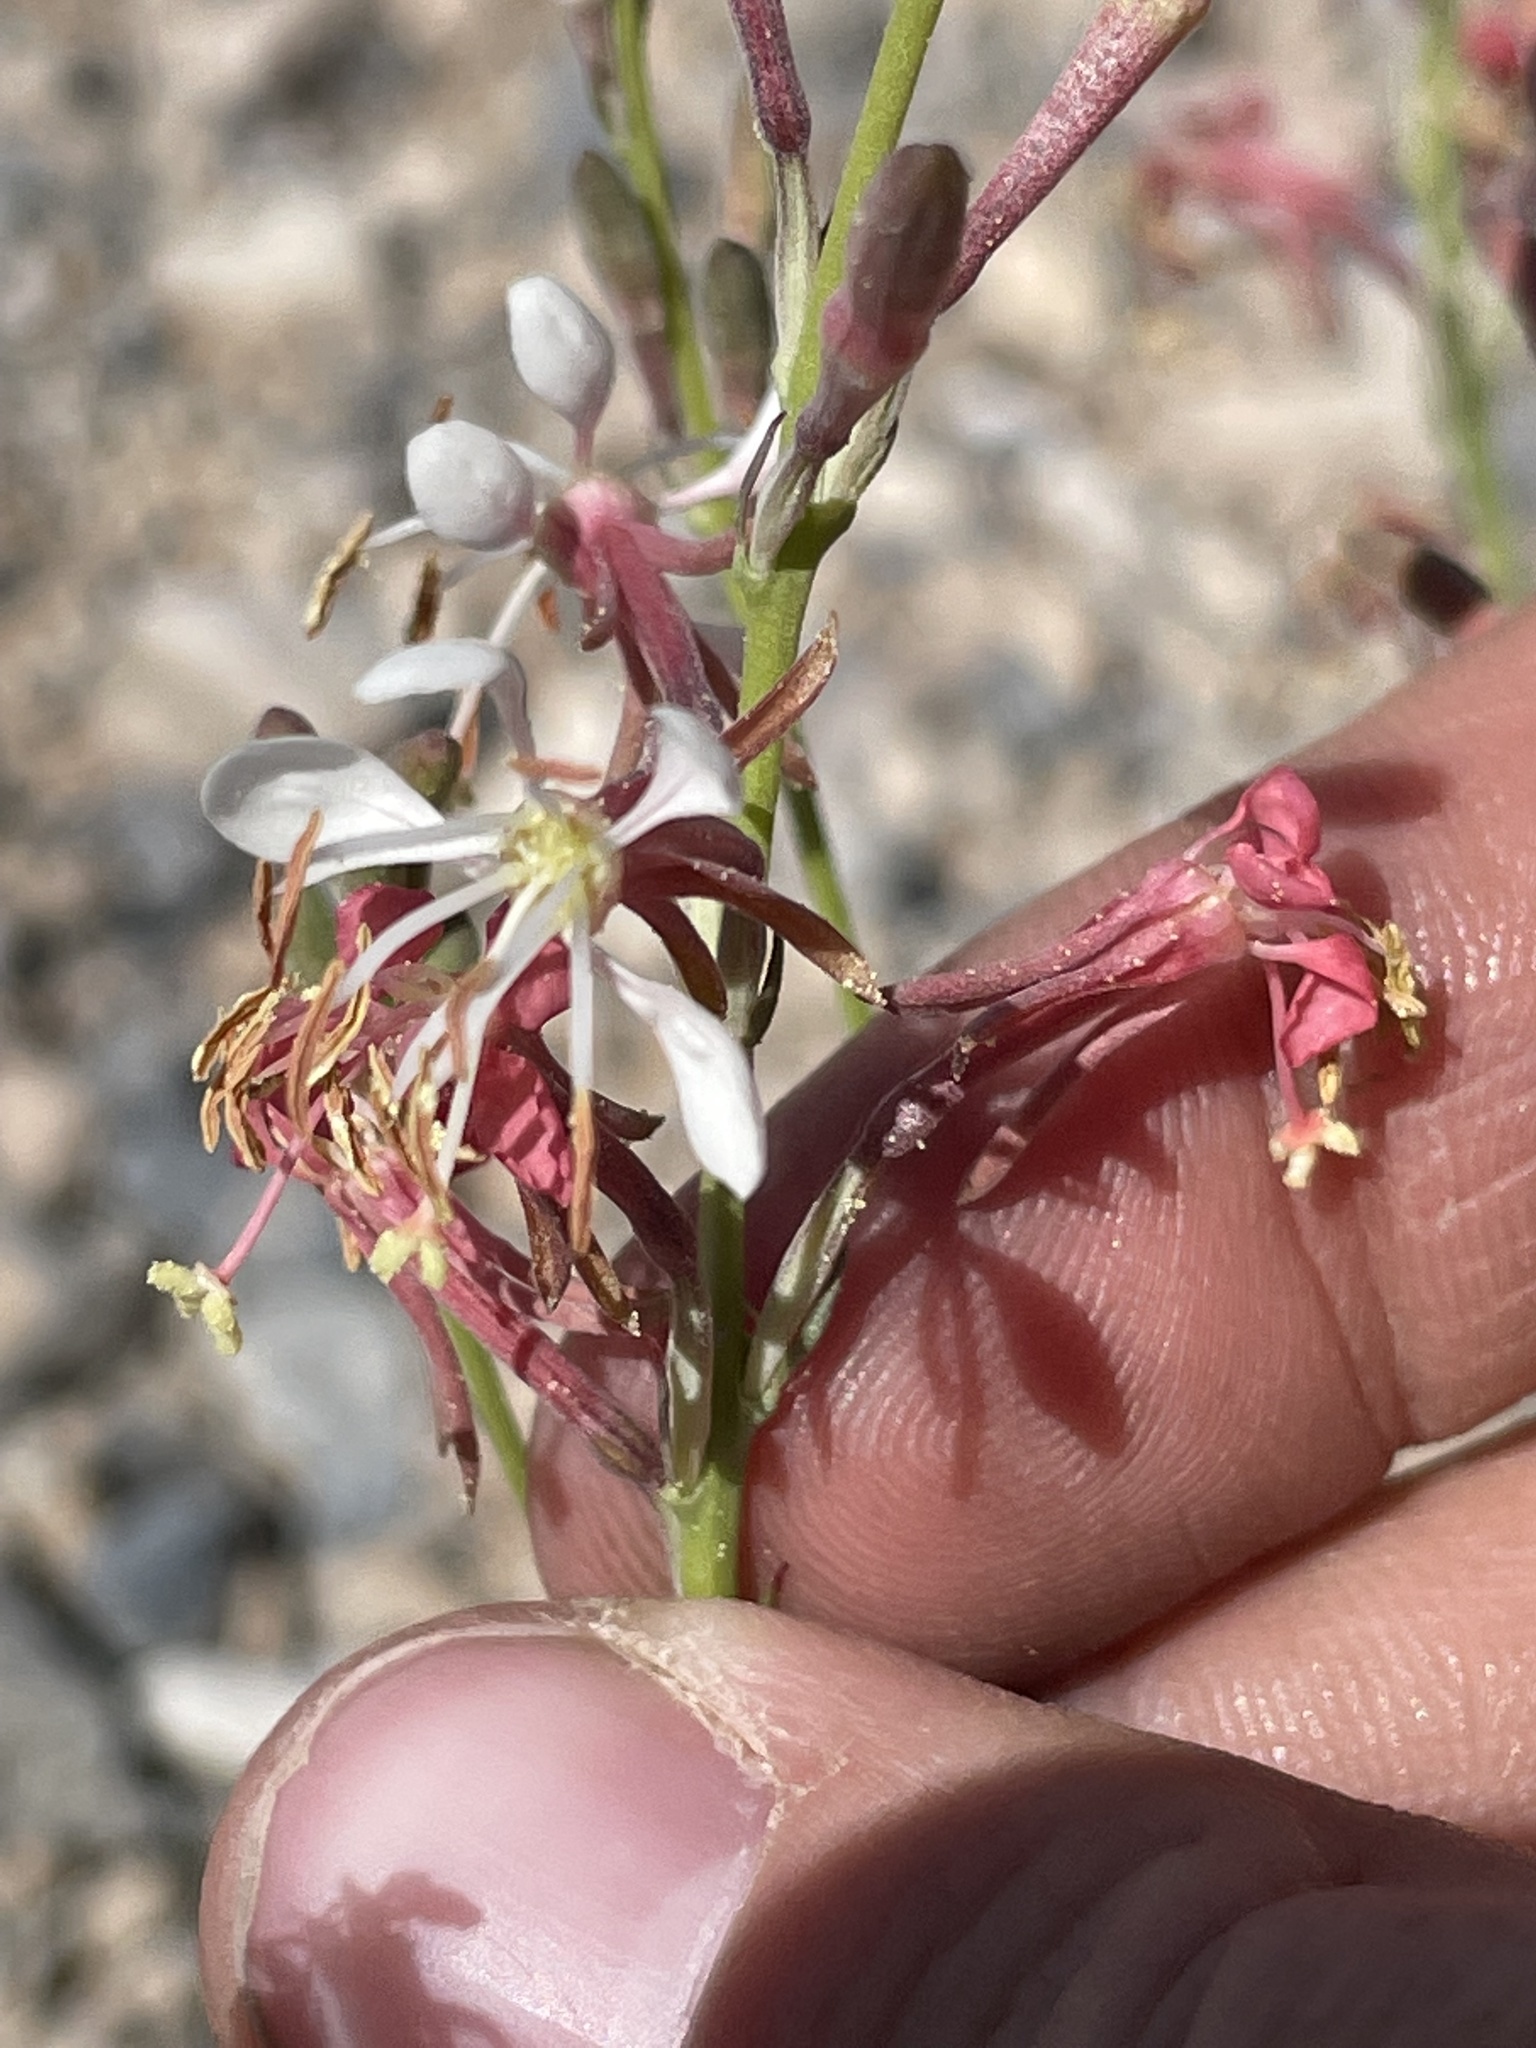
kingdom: Plantae
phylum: Tracheophyta
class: Magnoliopsida
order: Myrtales
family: Onagraceae
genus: Oenothera
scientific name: Oenothera suffrutescens
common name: Scarlet beeblossom
